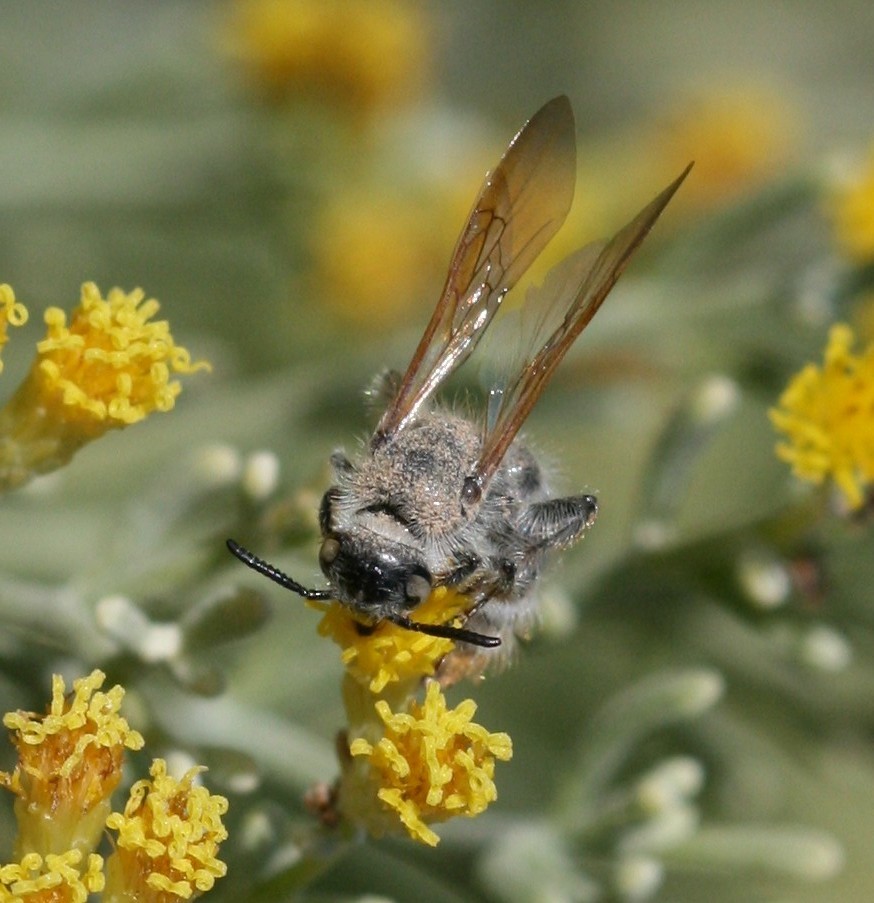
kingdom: Animalia
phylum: Arthropoda
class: Insecta
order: Hymenoptera
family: Scoliidae
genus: Micromeriella
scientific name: Micromeriella hyalina
